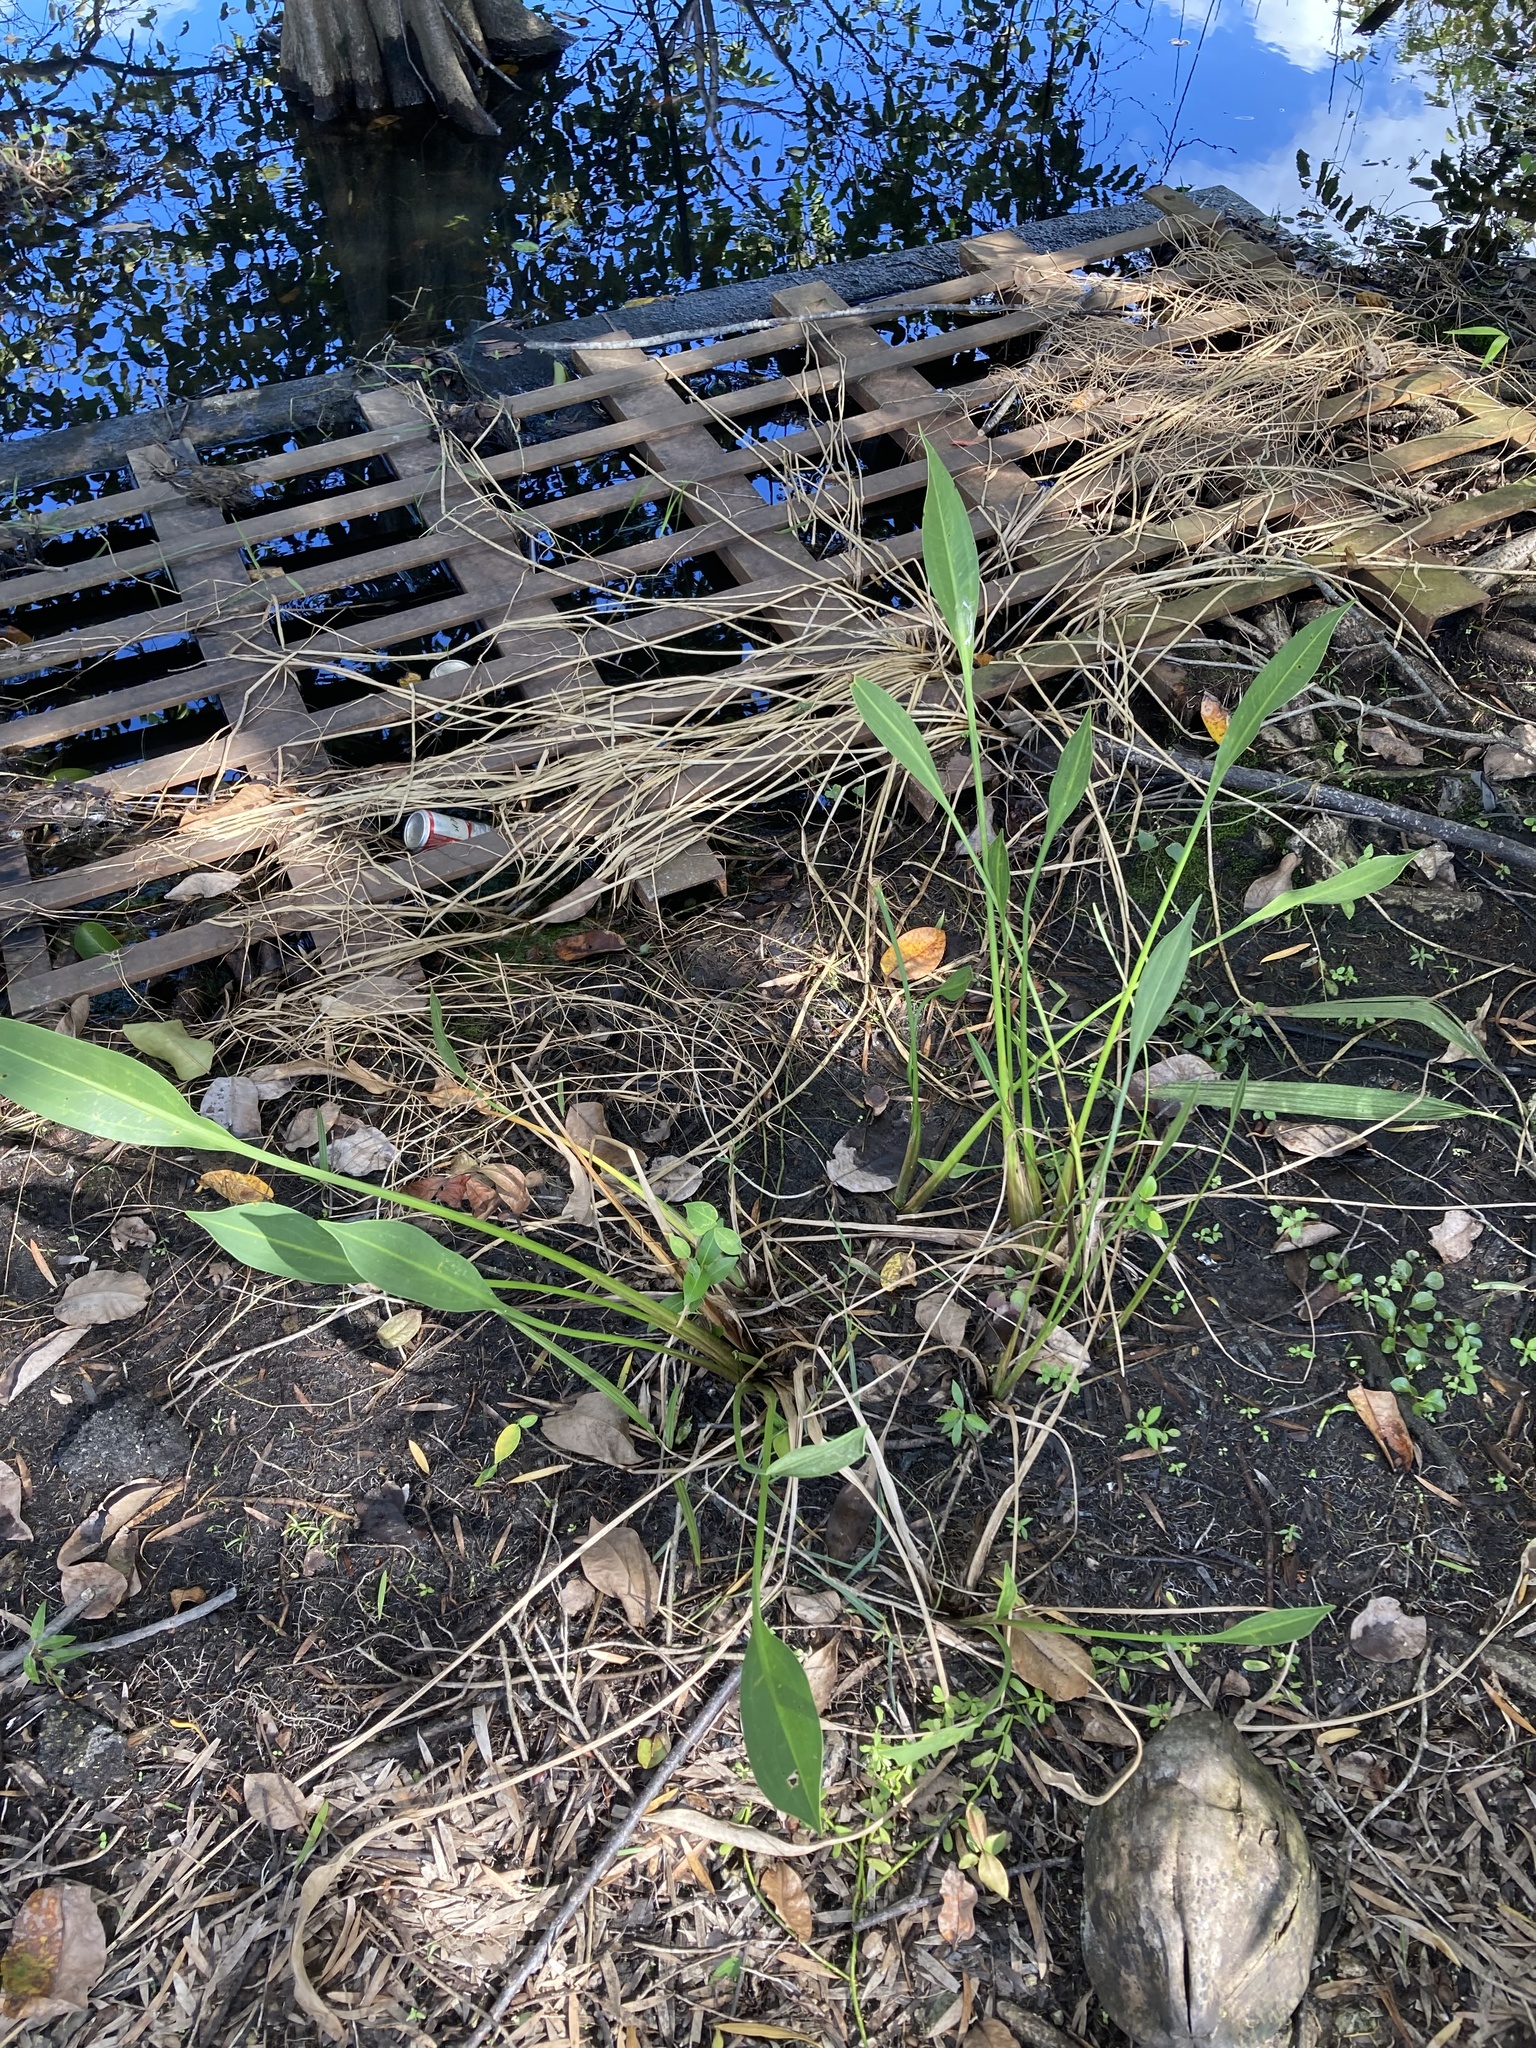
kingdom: Plantae
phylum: Tracheophyta
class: Liliopsida
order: Alismatales
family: Alismataceae
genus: Sagittaria
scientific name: Sagittaria lancifolia
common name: Lance-leaf arrowhead
